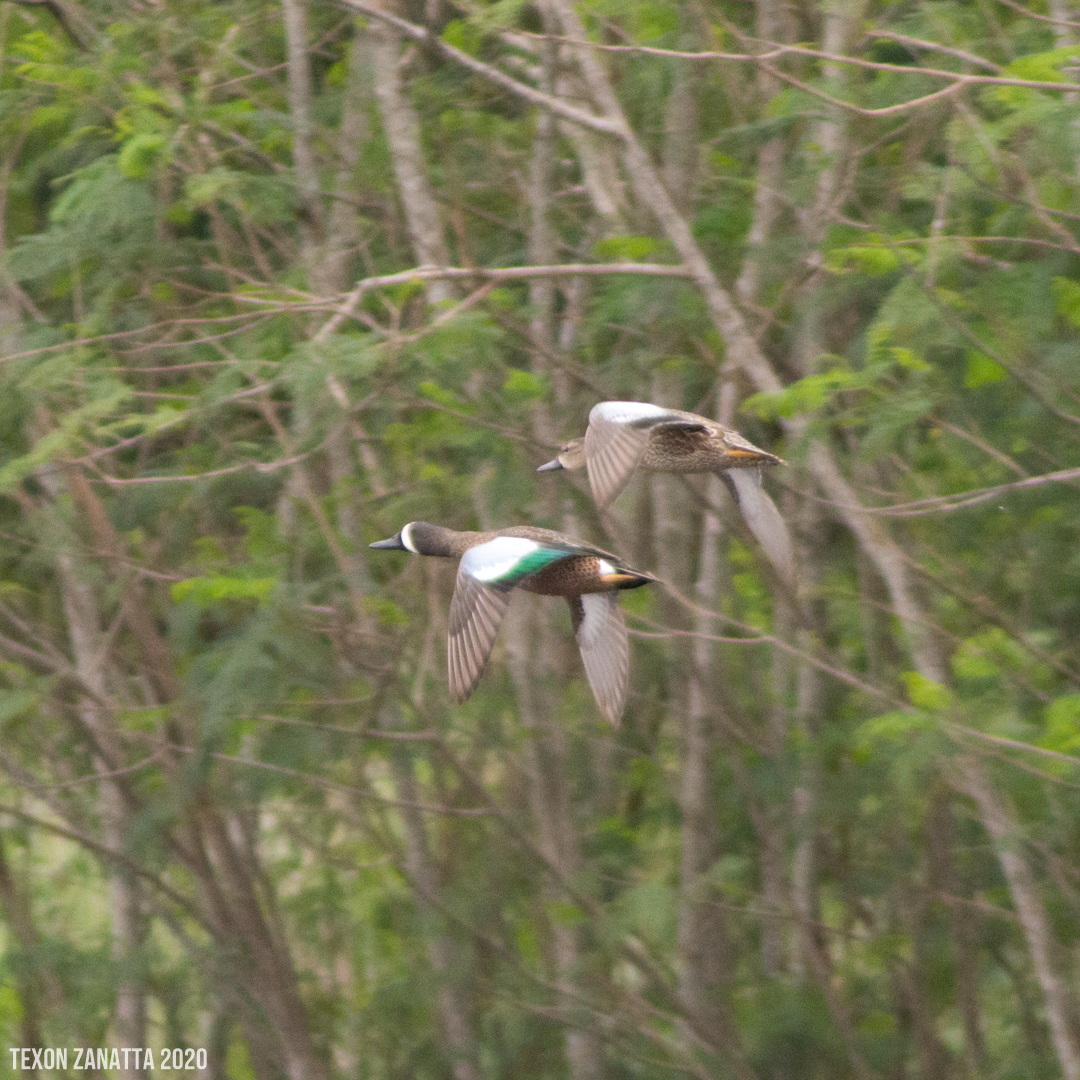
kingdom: Animalia
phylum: Chordata
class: Aves
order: Anseriformes
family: Anatidae
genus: Spatula
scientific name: Spatula discors
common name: Blue-winged teal
